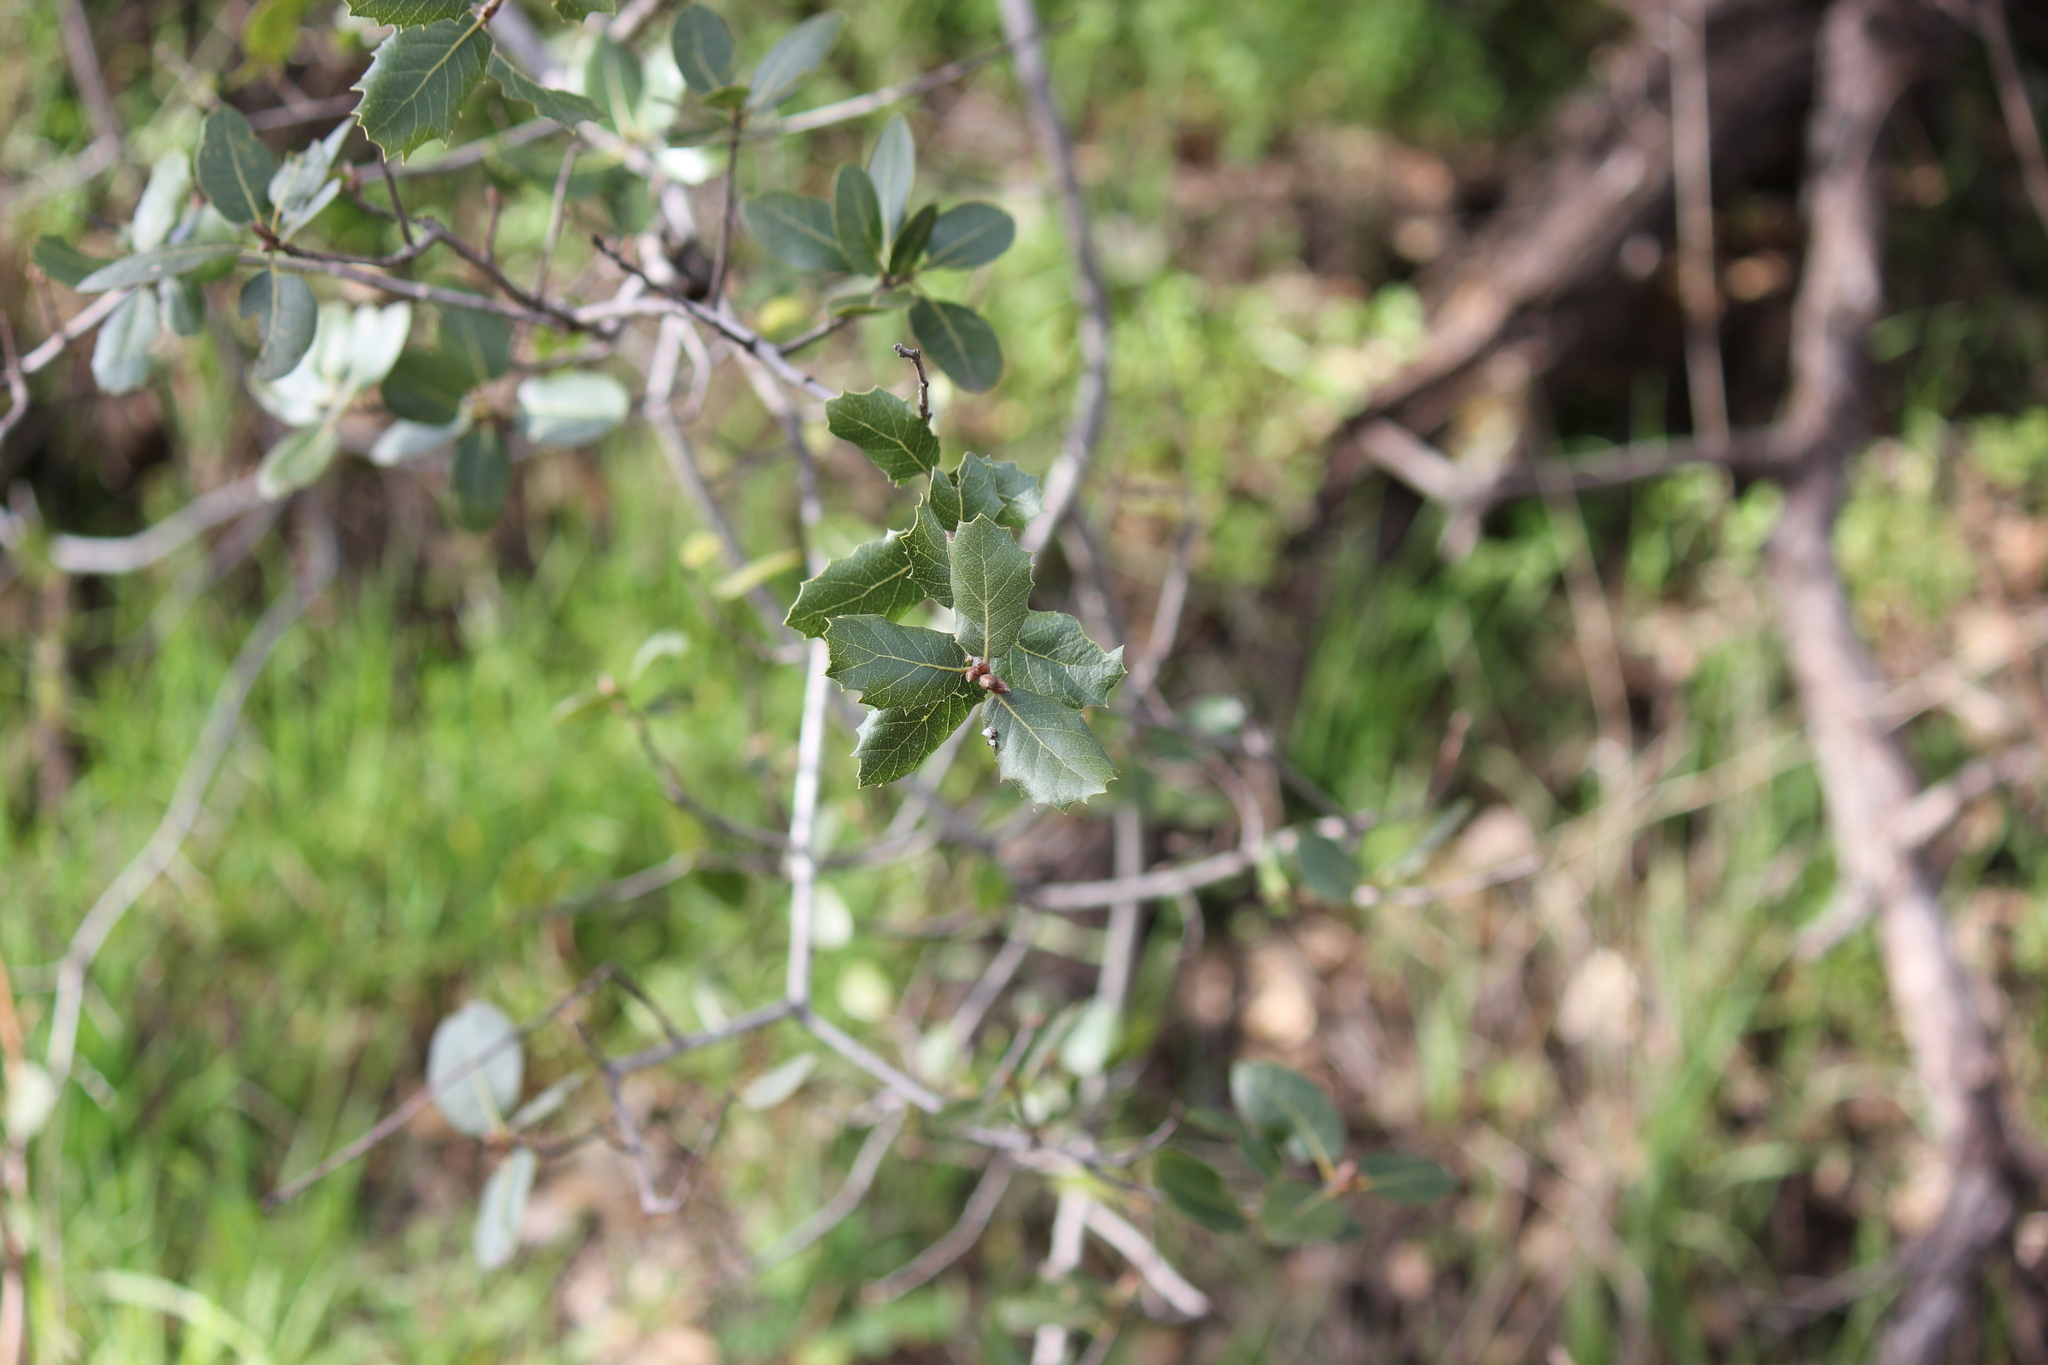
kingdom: Plantae
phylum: Tracheophyta
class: Magnoliopsida
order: Fagales
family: Fagaceae
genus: Quercus
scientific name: Quercus wislizeni
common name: Interior live oak
